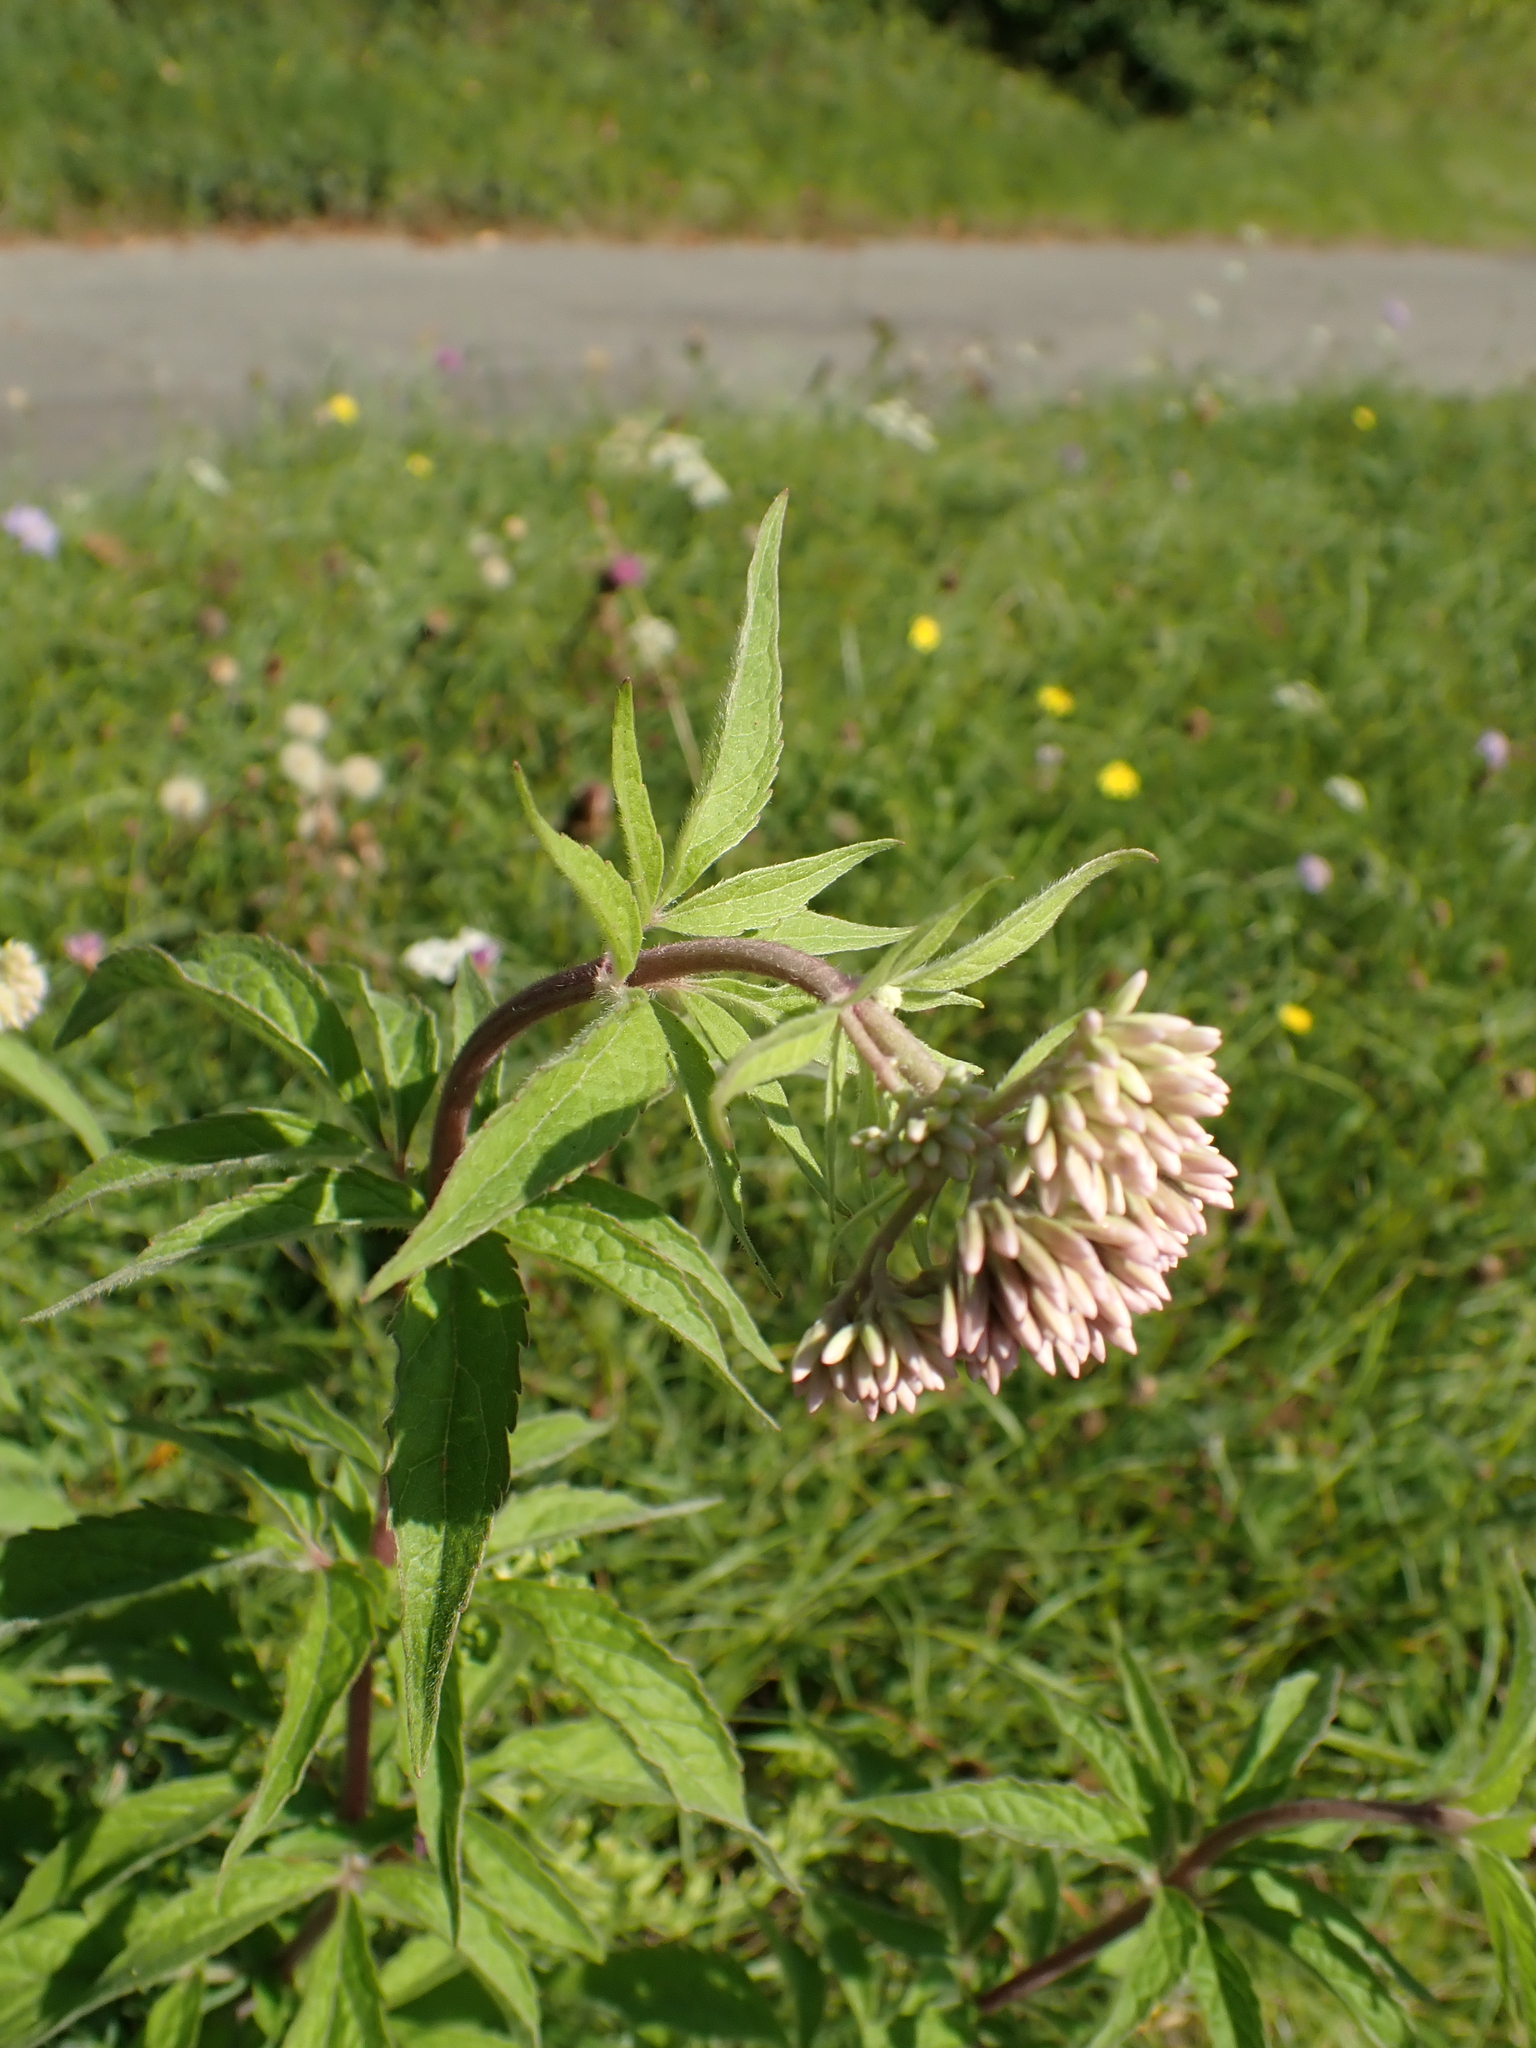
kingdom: Plantae
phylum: Tracheophyta
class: Magnoliopsida
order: Asterales
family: Asteraceae
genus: Eupatorium
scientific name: Eupatorium cannabinum
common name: Hemp-agrimony
